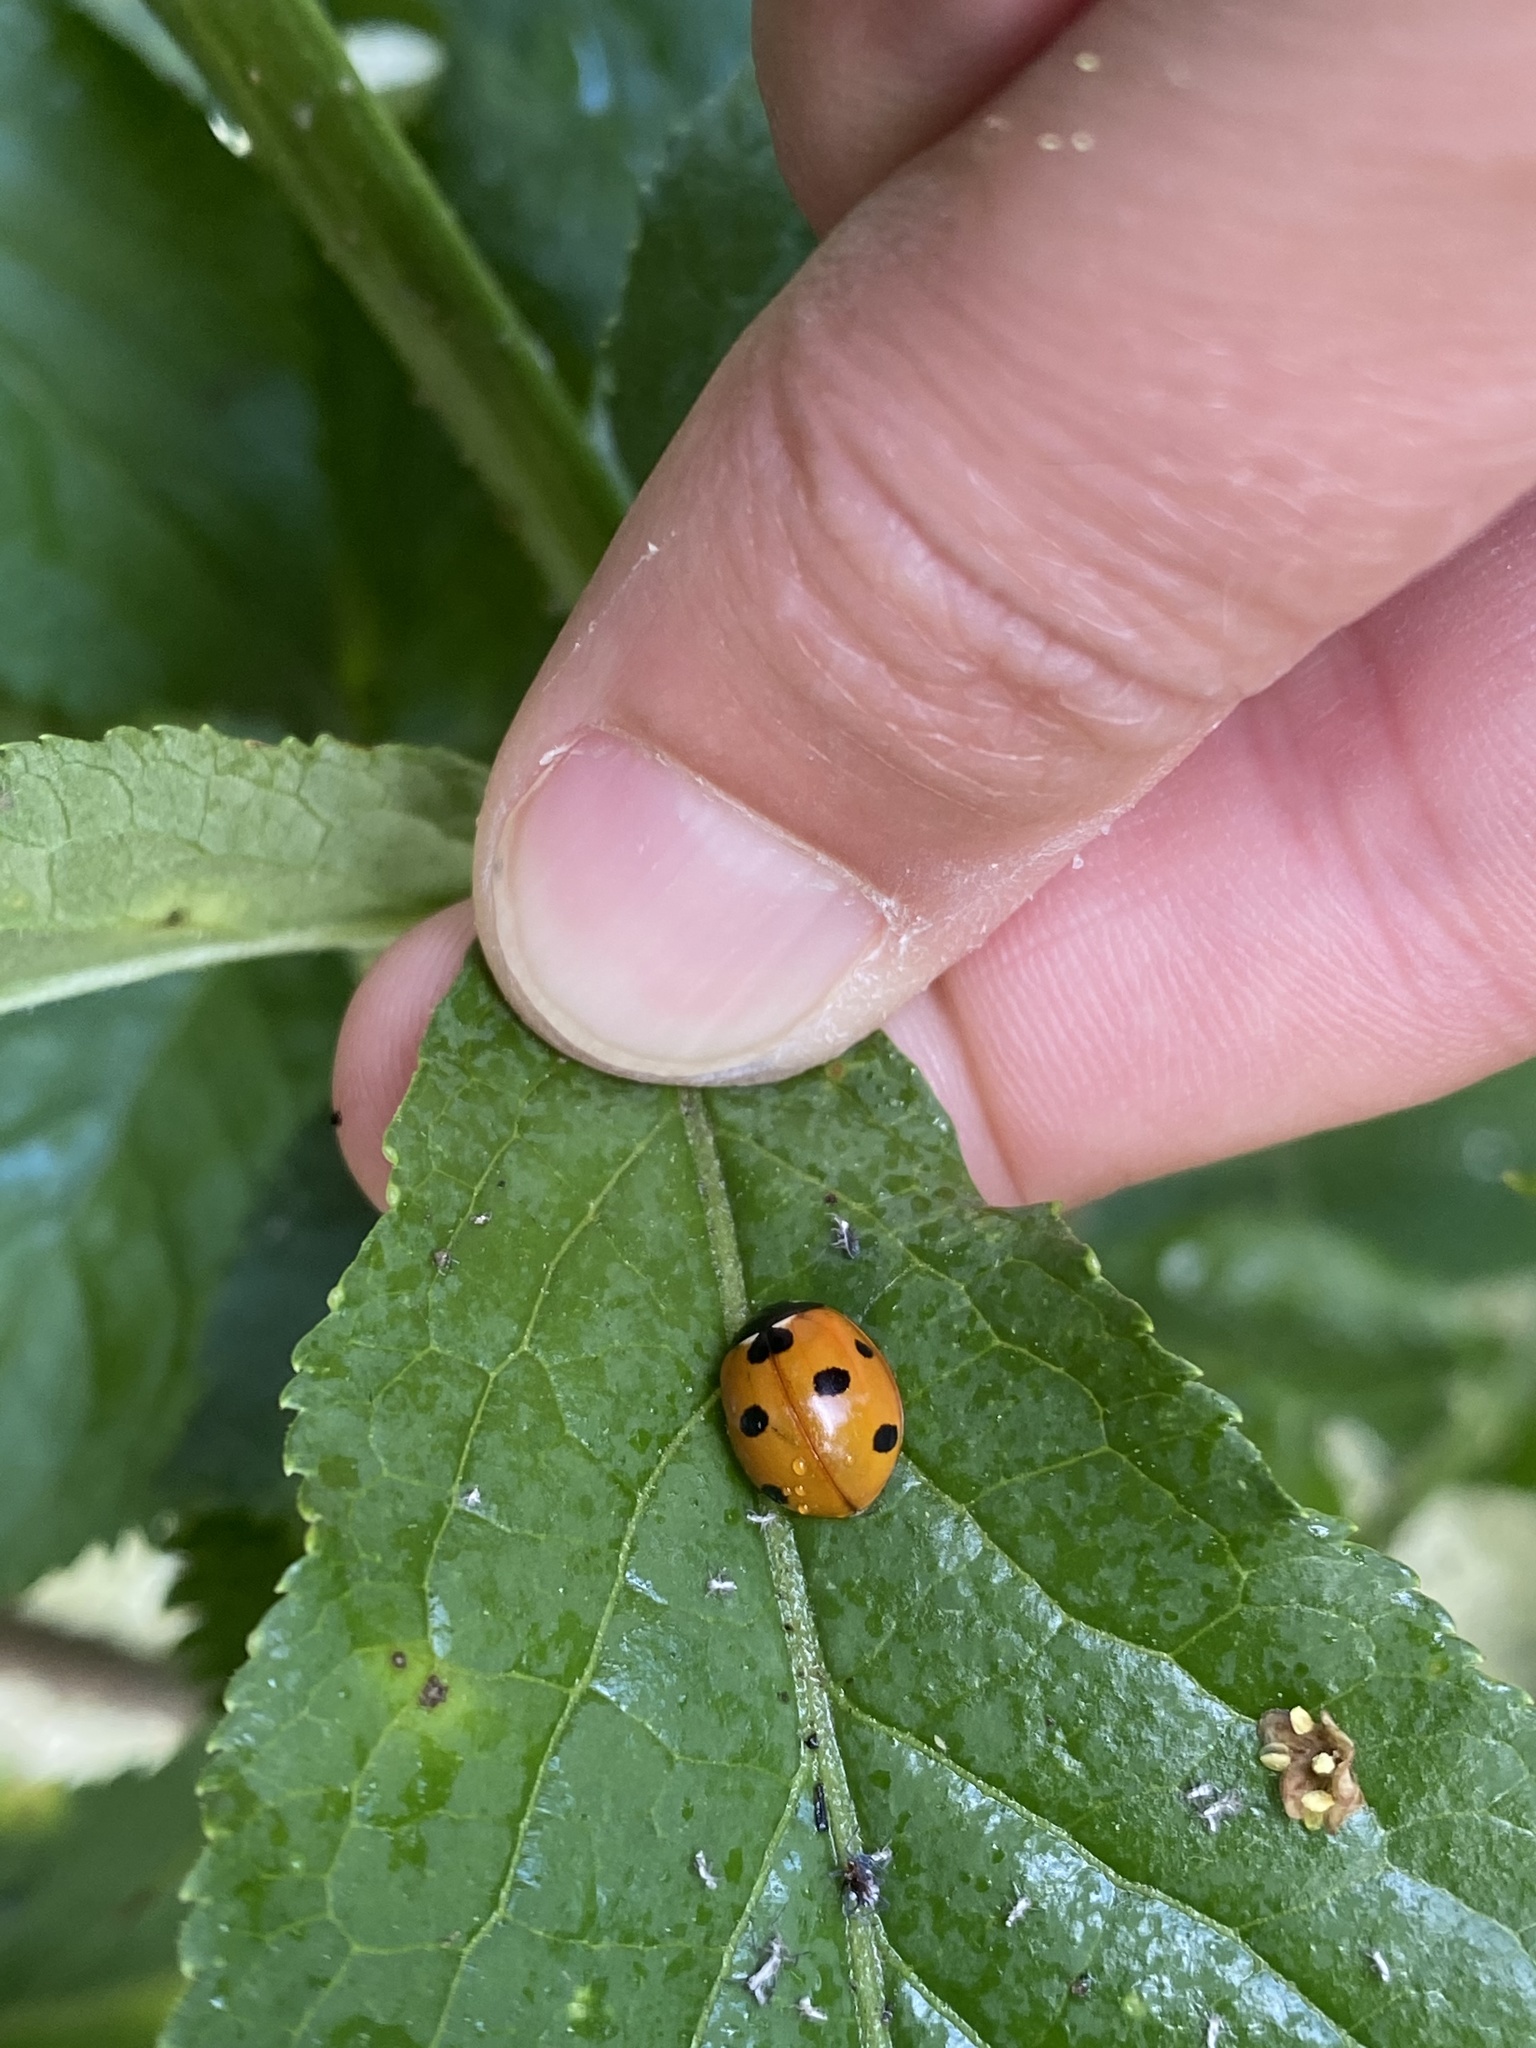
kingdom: Animalia
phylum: Arthropoda
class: Insecta
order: Coleoptera
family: Coccinellidae
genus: Coccinella
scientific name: Coccinella septempunctata
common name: Sevenspotted lady beetle
